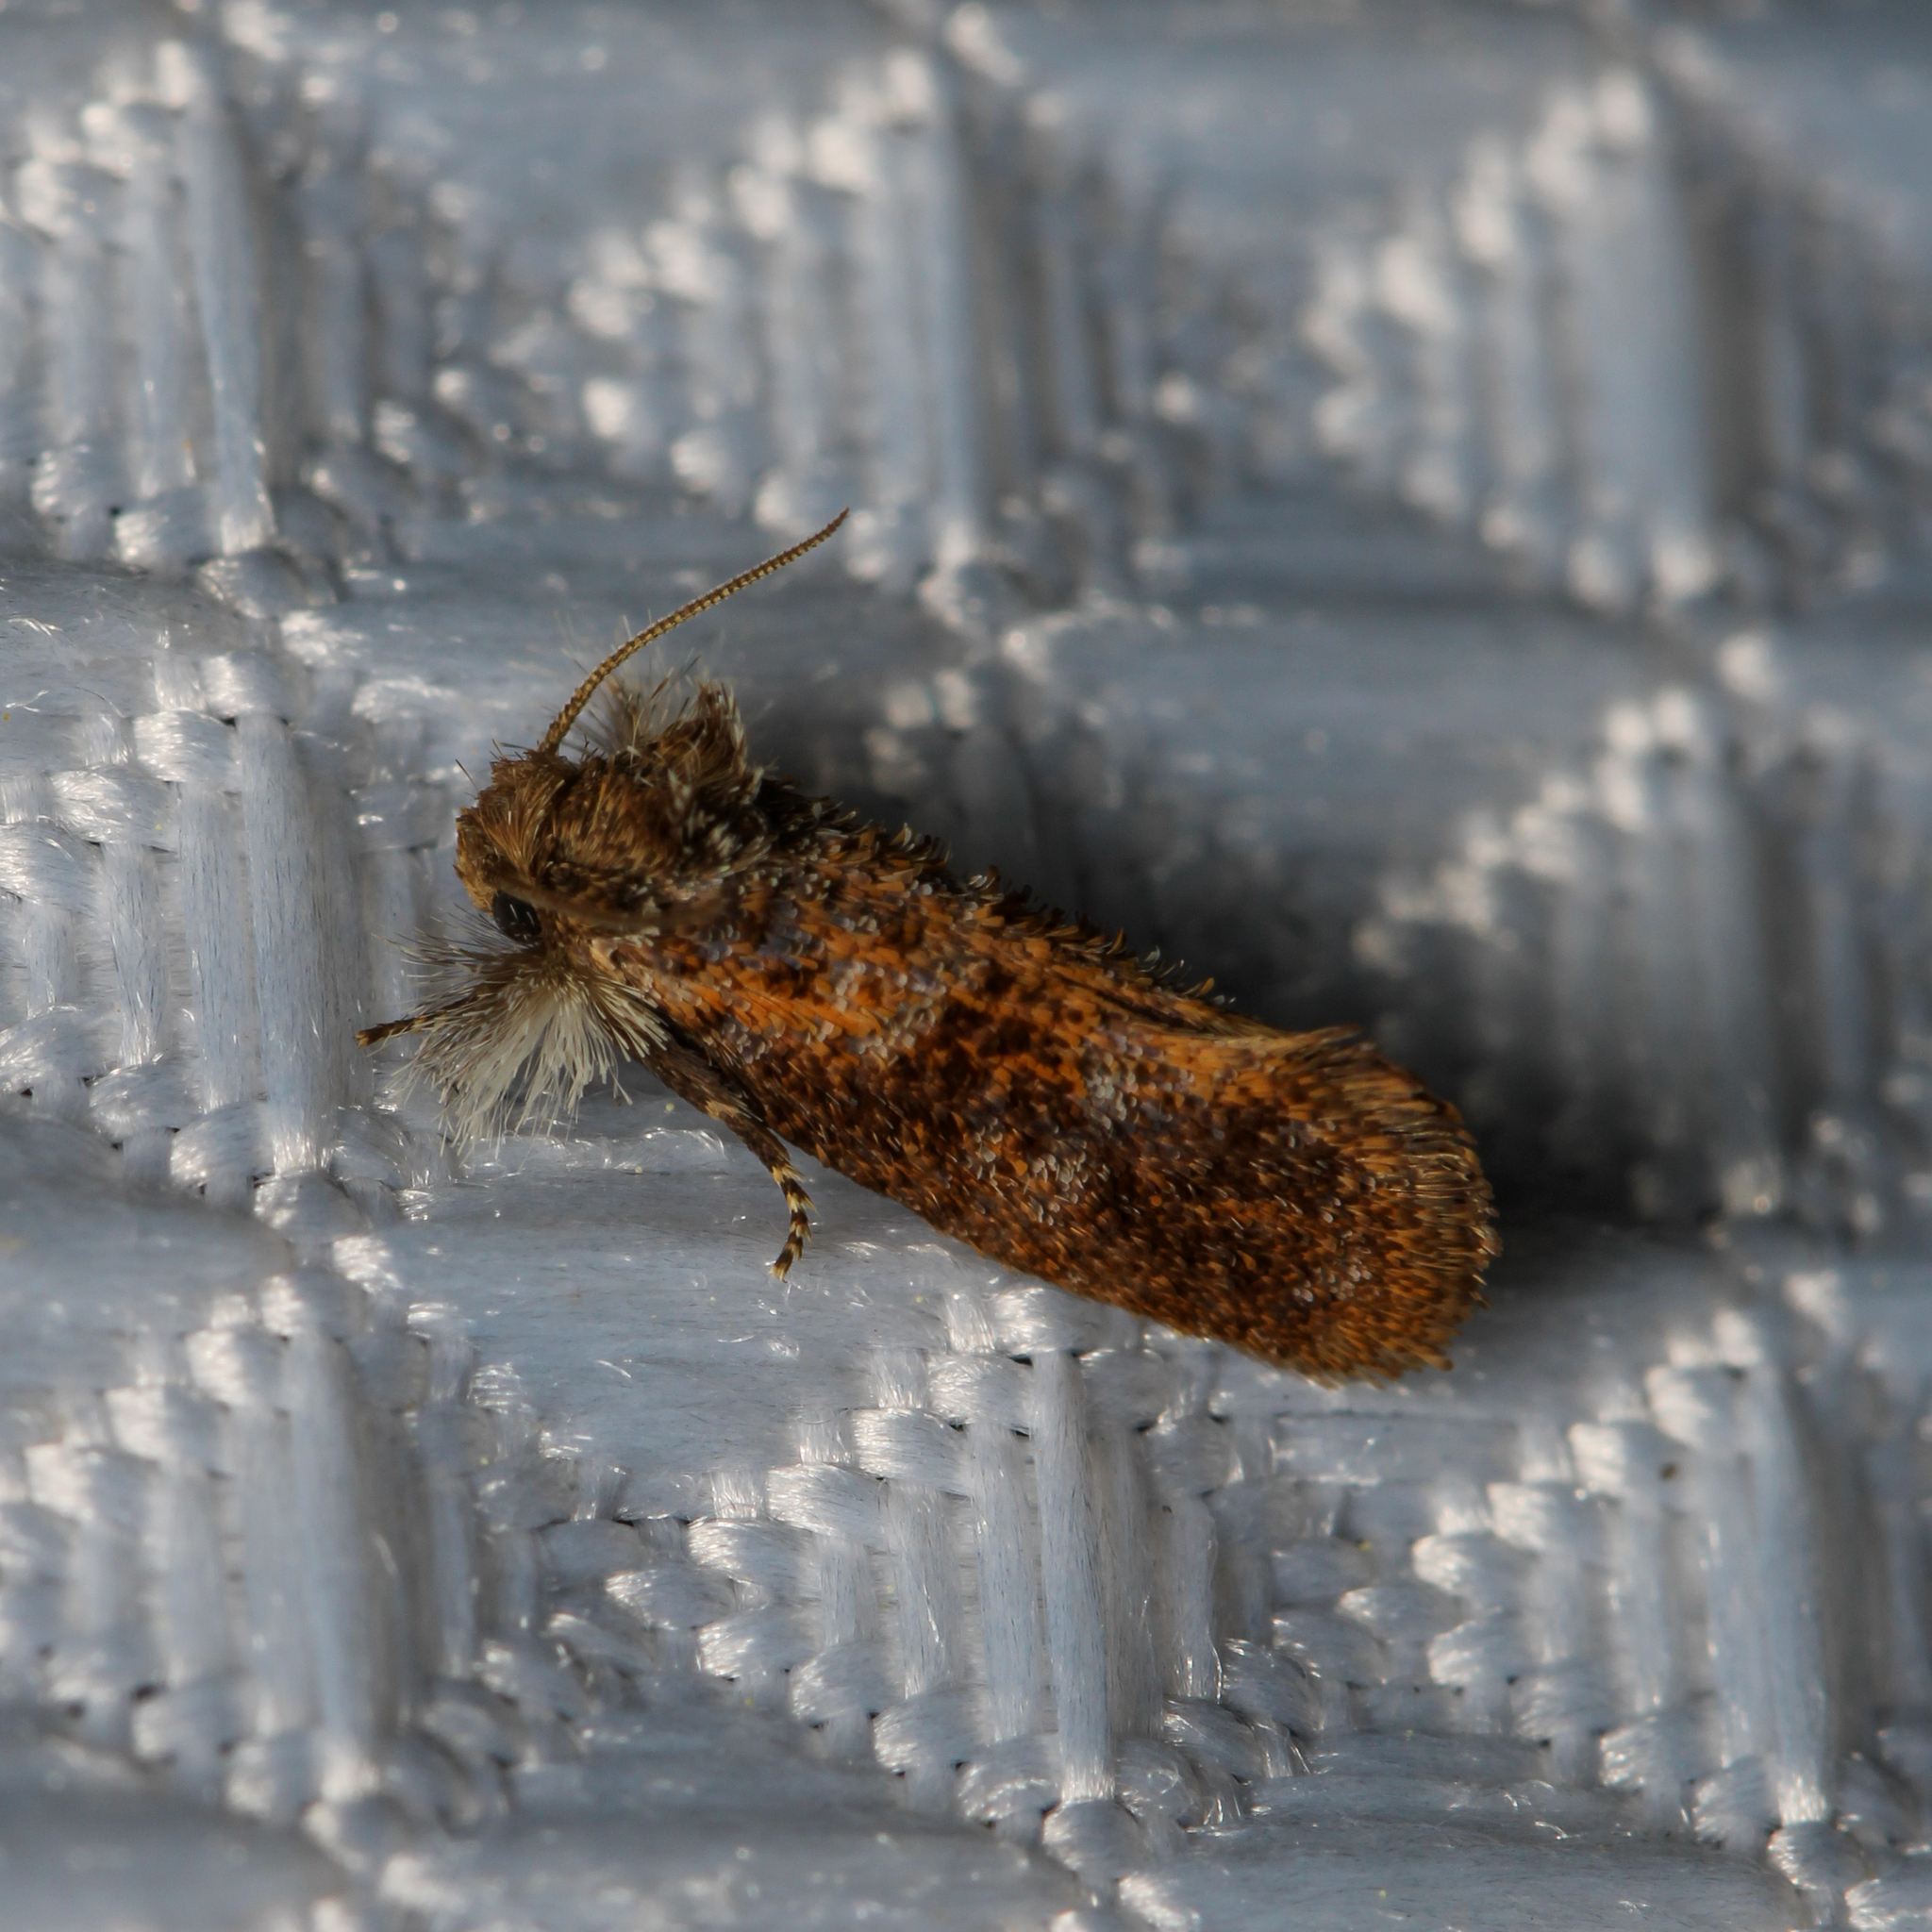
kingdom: Animalia
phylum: Arthropoda
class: Insecta
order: Lepidoptera
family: Tineidae
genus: Acrolophus
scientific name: Acrolophus panamae
